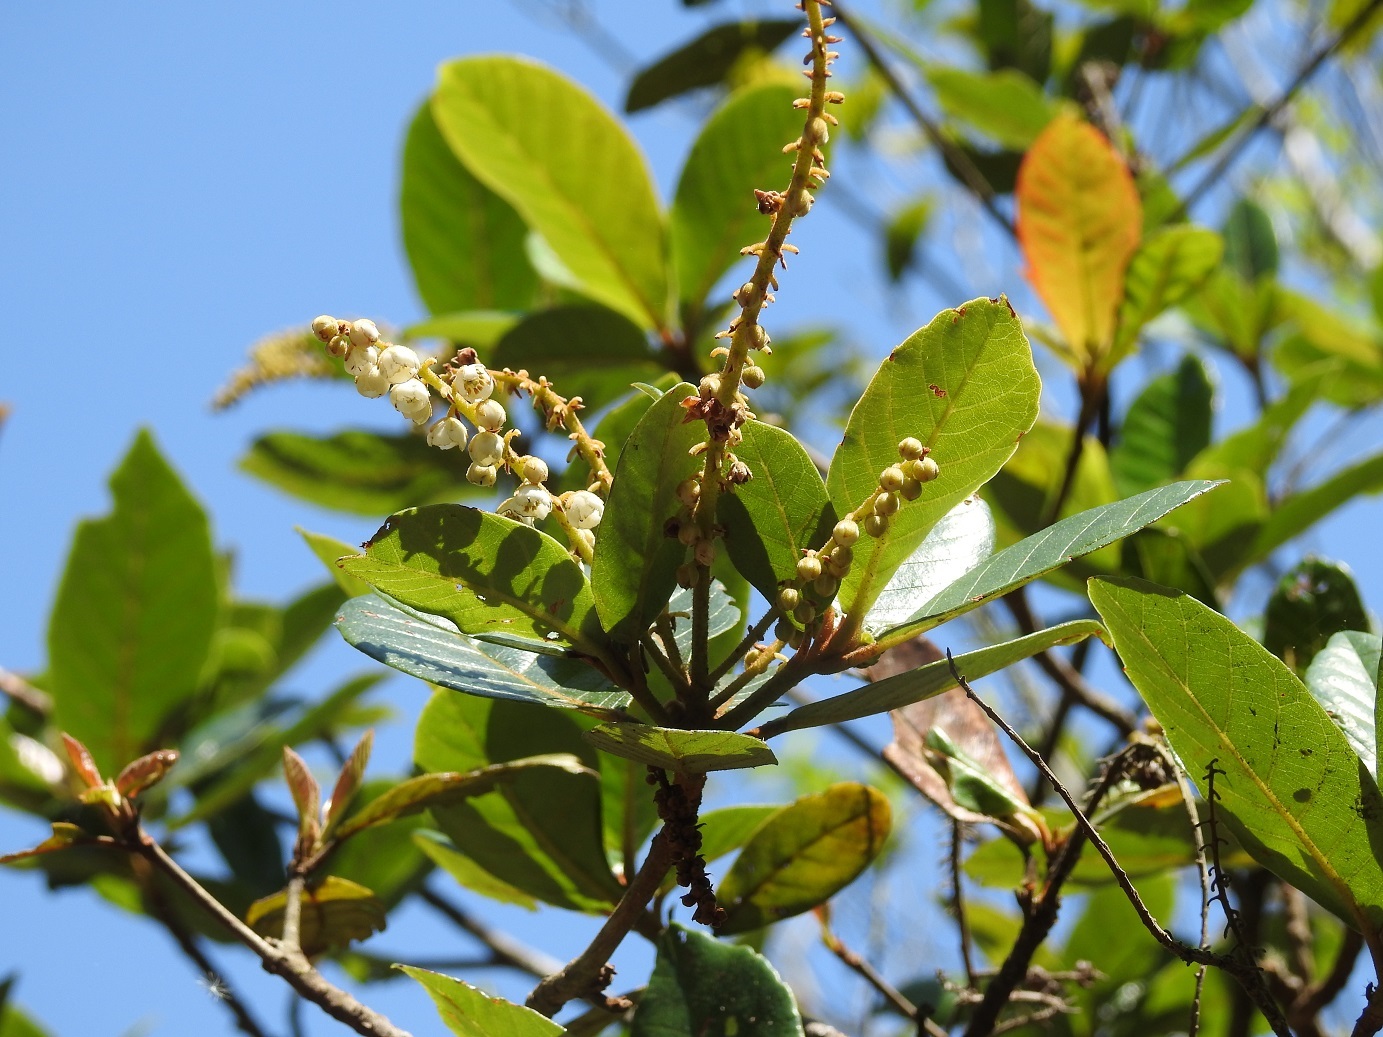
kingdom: Plantae
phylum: Tracheophyta
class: Magnoliopsida
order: Ericales
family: Clethraceae
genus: Clethra
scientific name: Clethra purpusii
